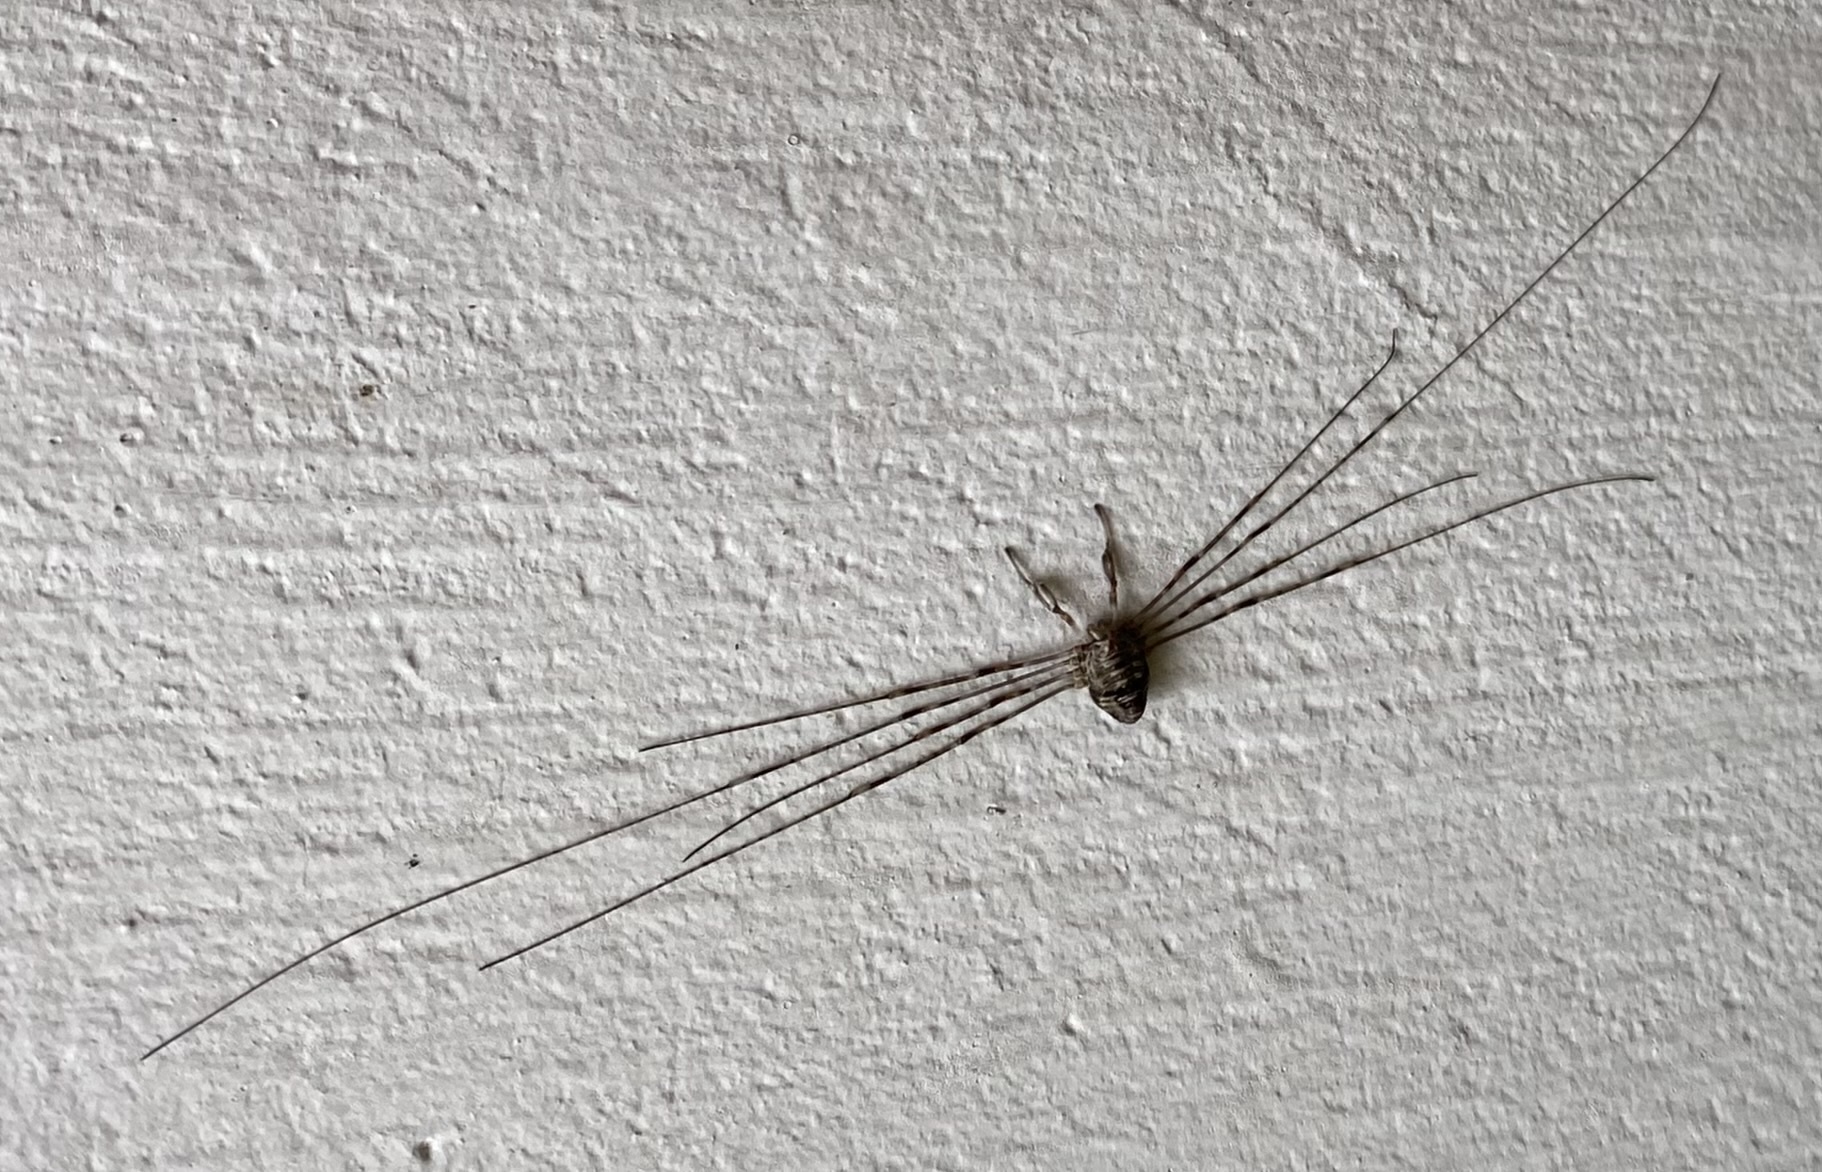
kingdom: Animalia
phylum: Arthropoda
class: Arachnida
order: Opiliones
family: Phalangiidae
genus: Dicranopalpus
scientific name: Dicranopalpus ramosus
